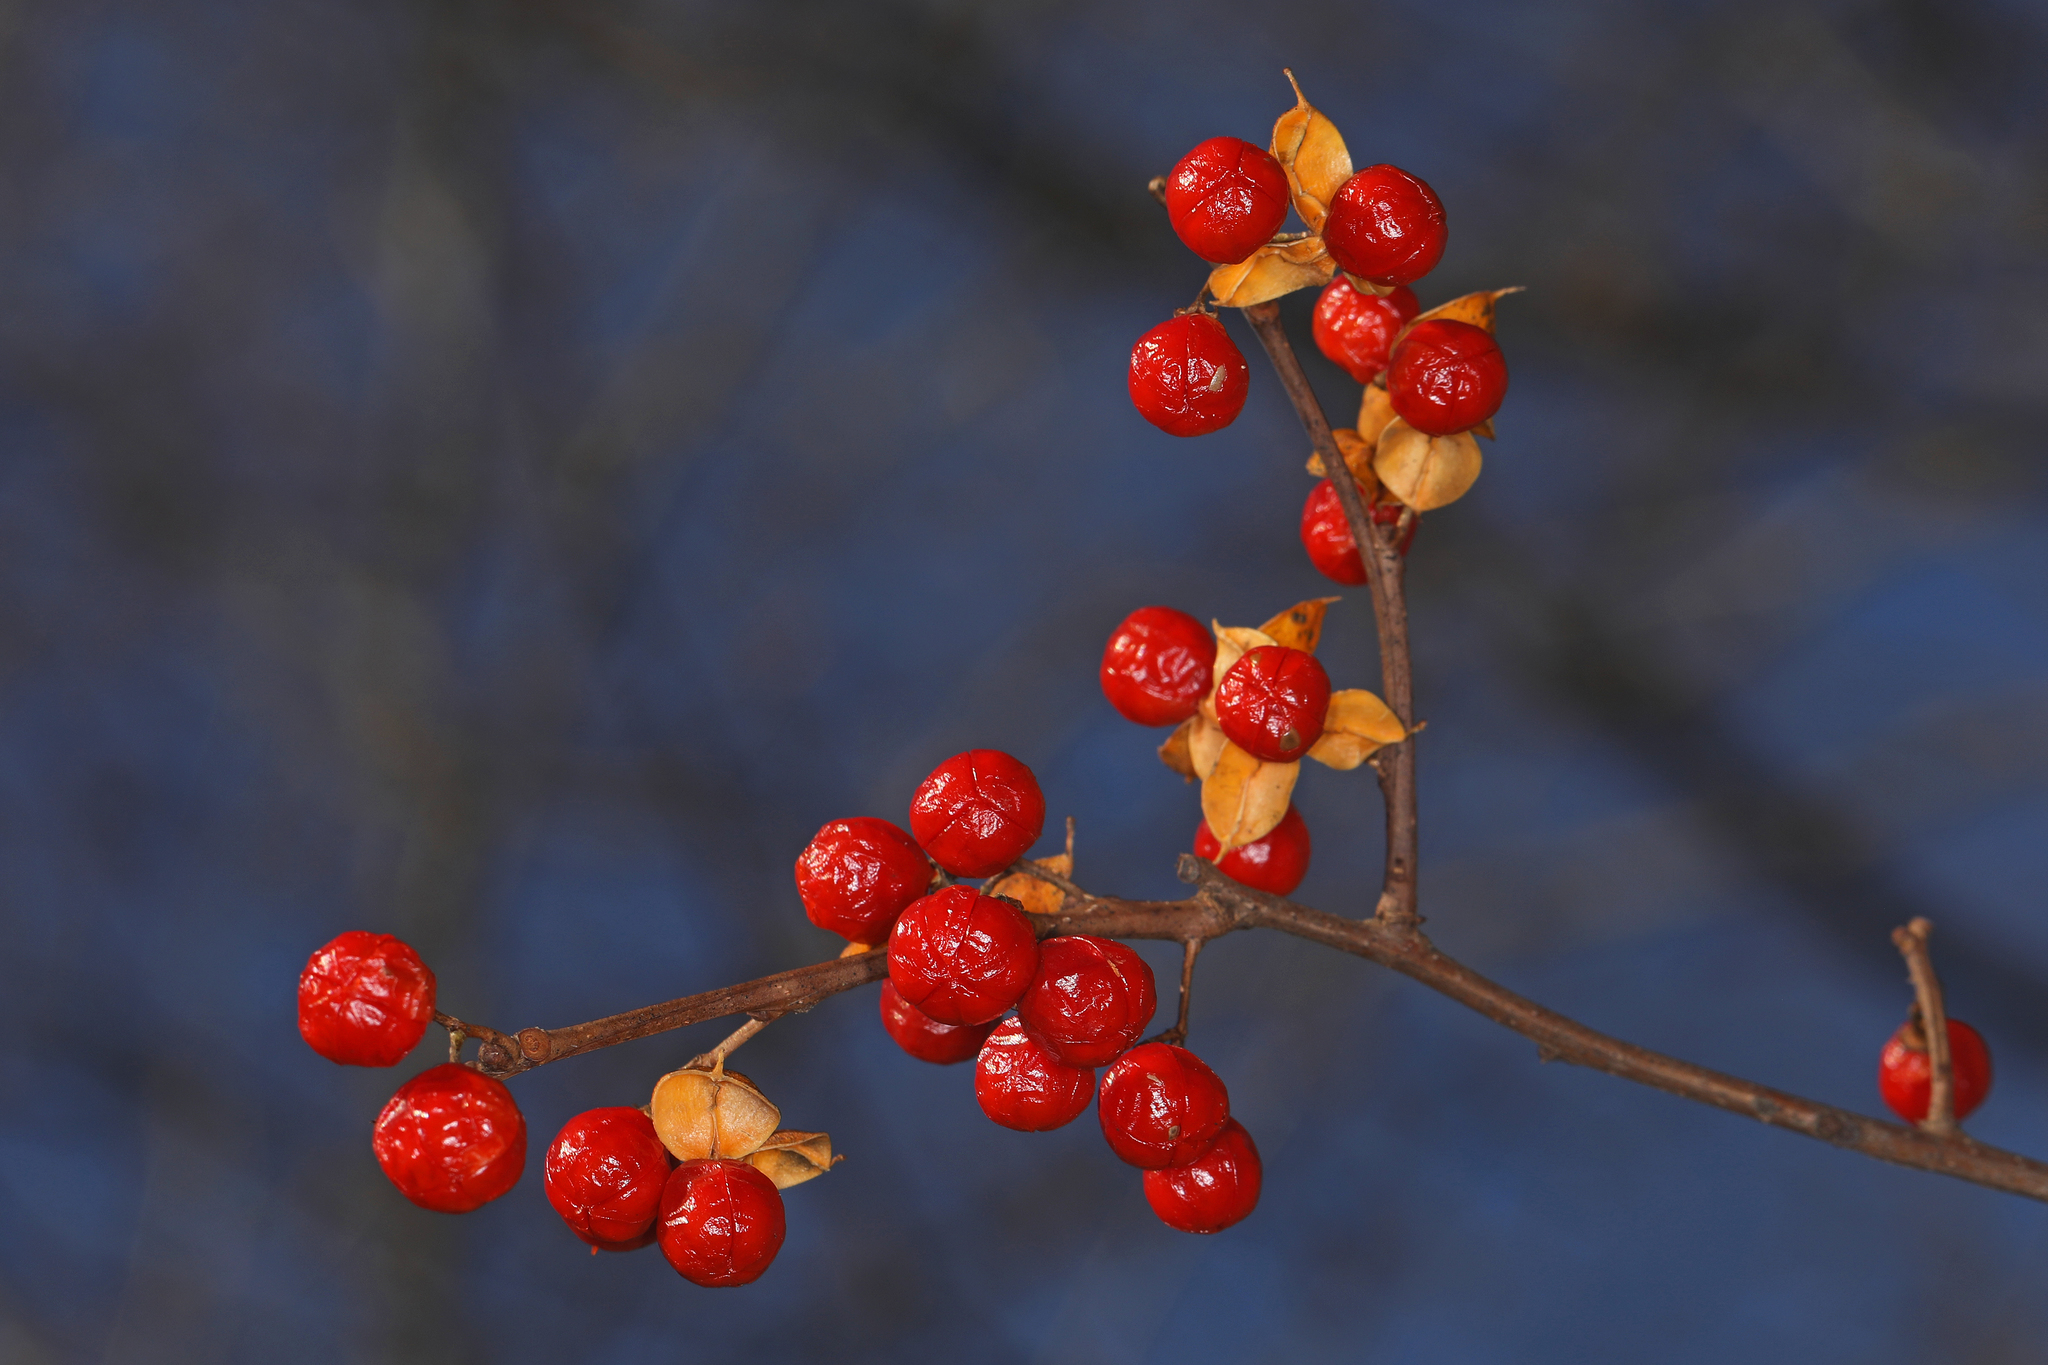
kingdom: Plantae
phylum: Tracheophyta
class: Magnoliopsida
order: Celastrales
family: Celastraceae
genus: Celastrus
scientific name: Celastrus orbiculatus
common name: Oriental bittersweet
